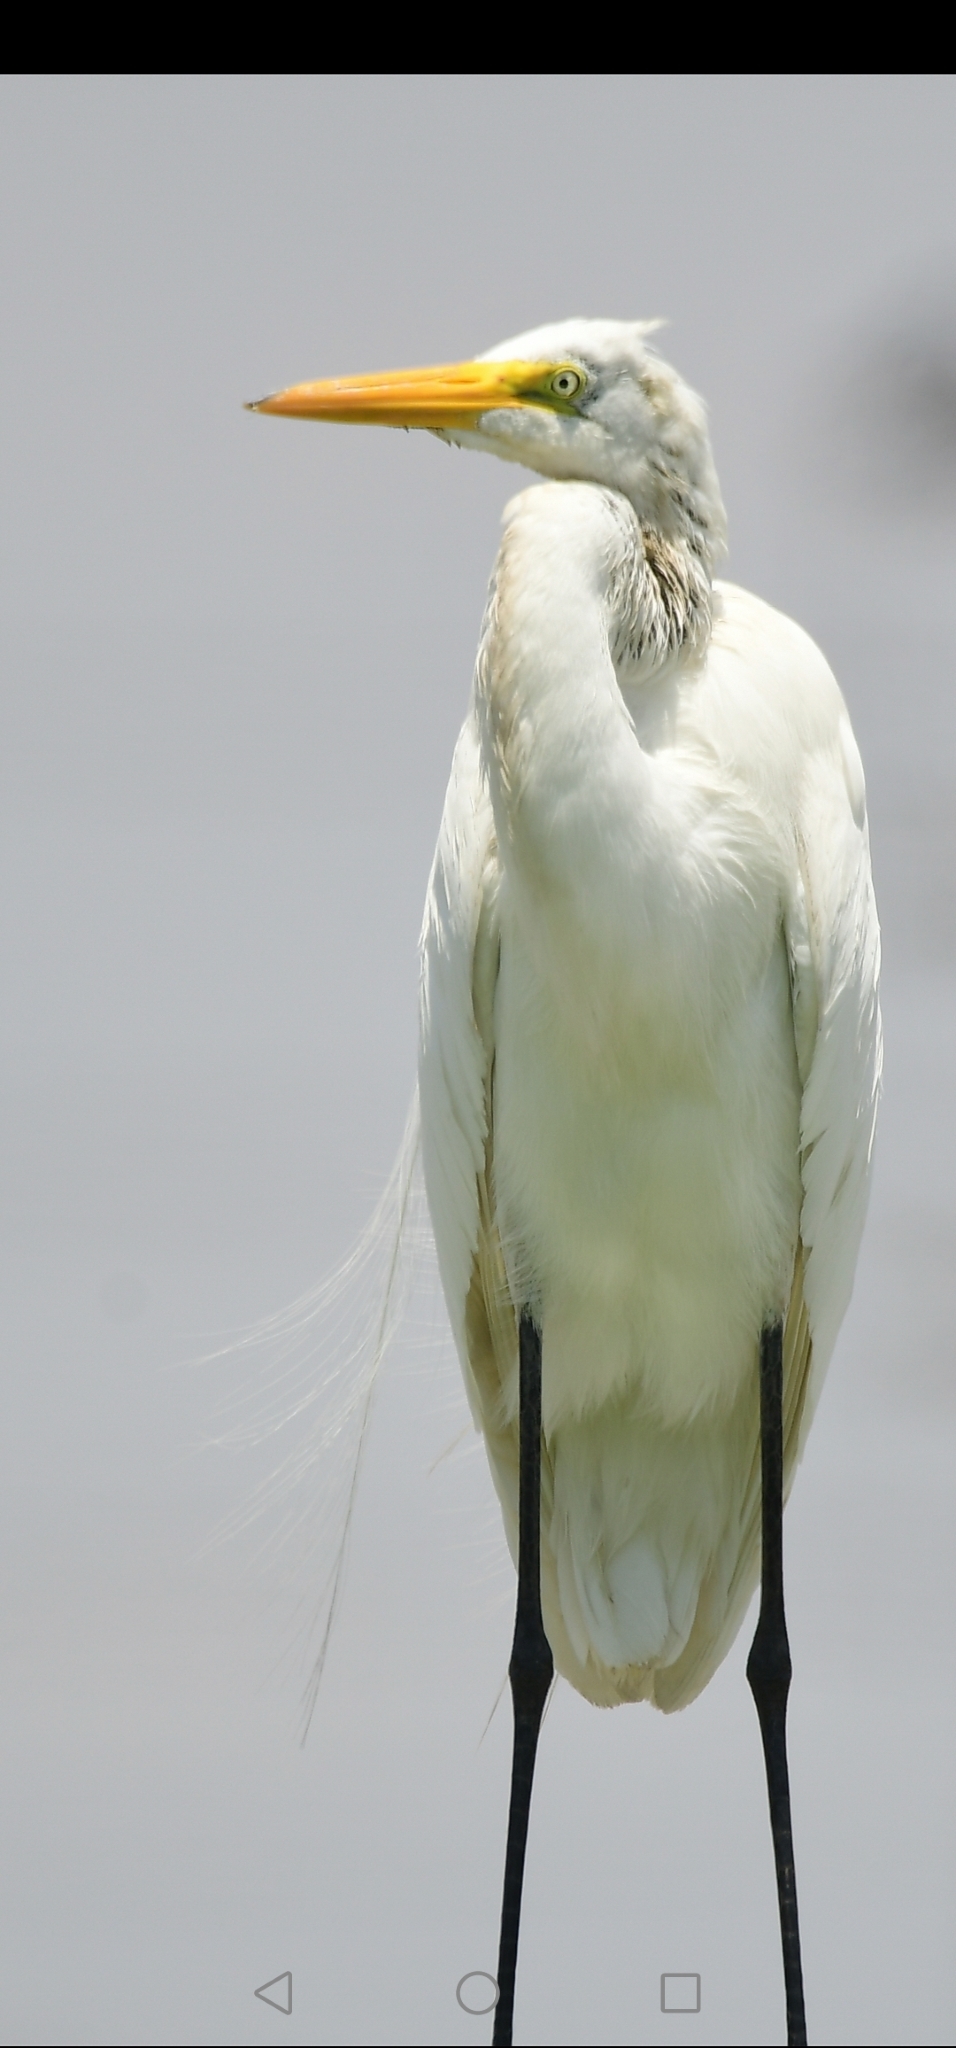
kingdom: Animalia
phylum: Chordata
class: Aves
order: Pelecaniformes
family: Ardeidae
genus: Ardea
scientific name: Ardea alba
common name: Great egret
